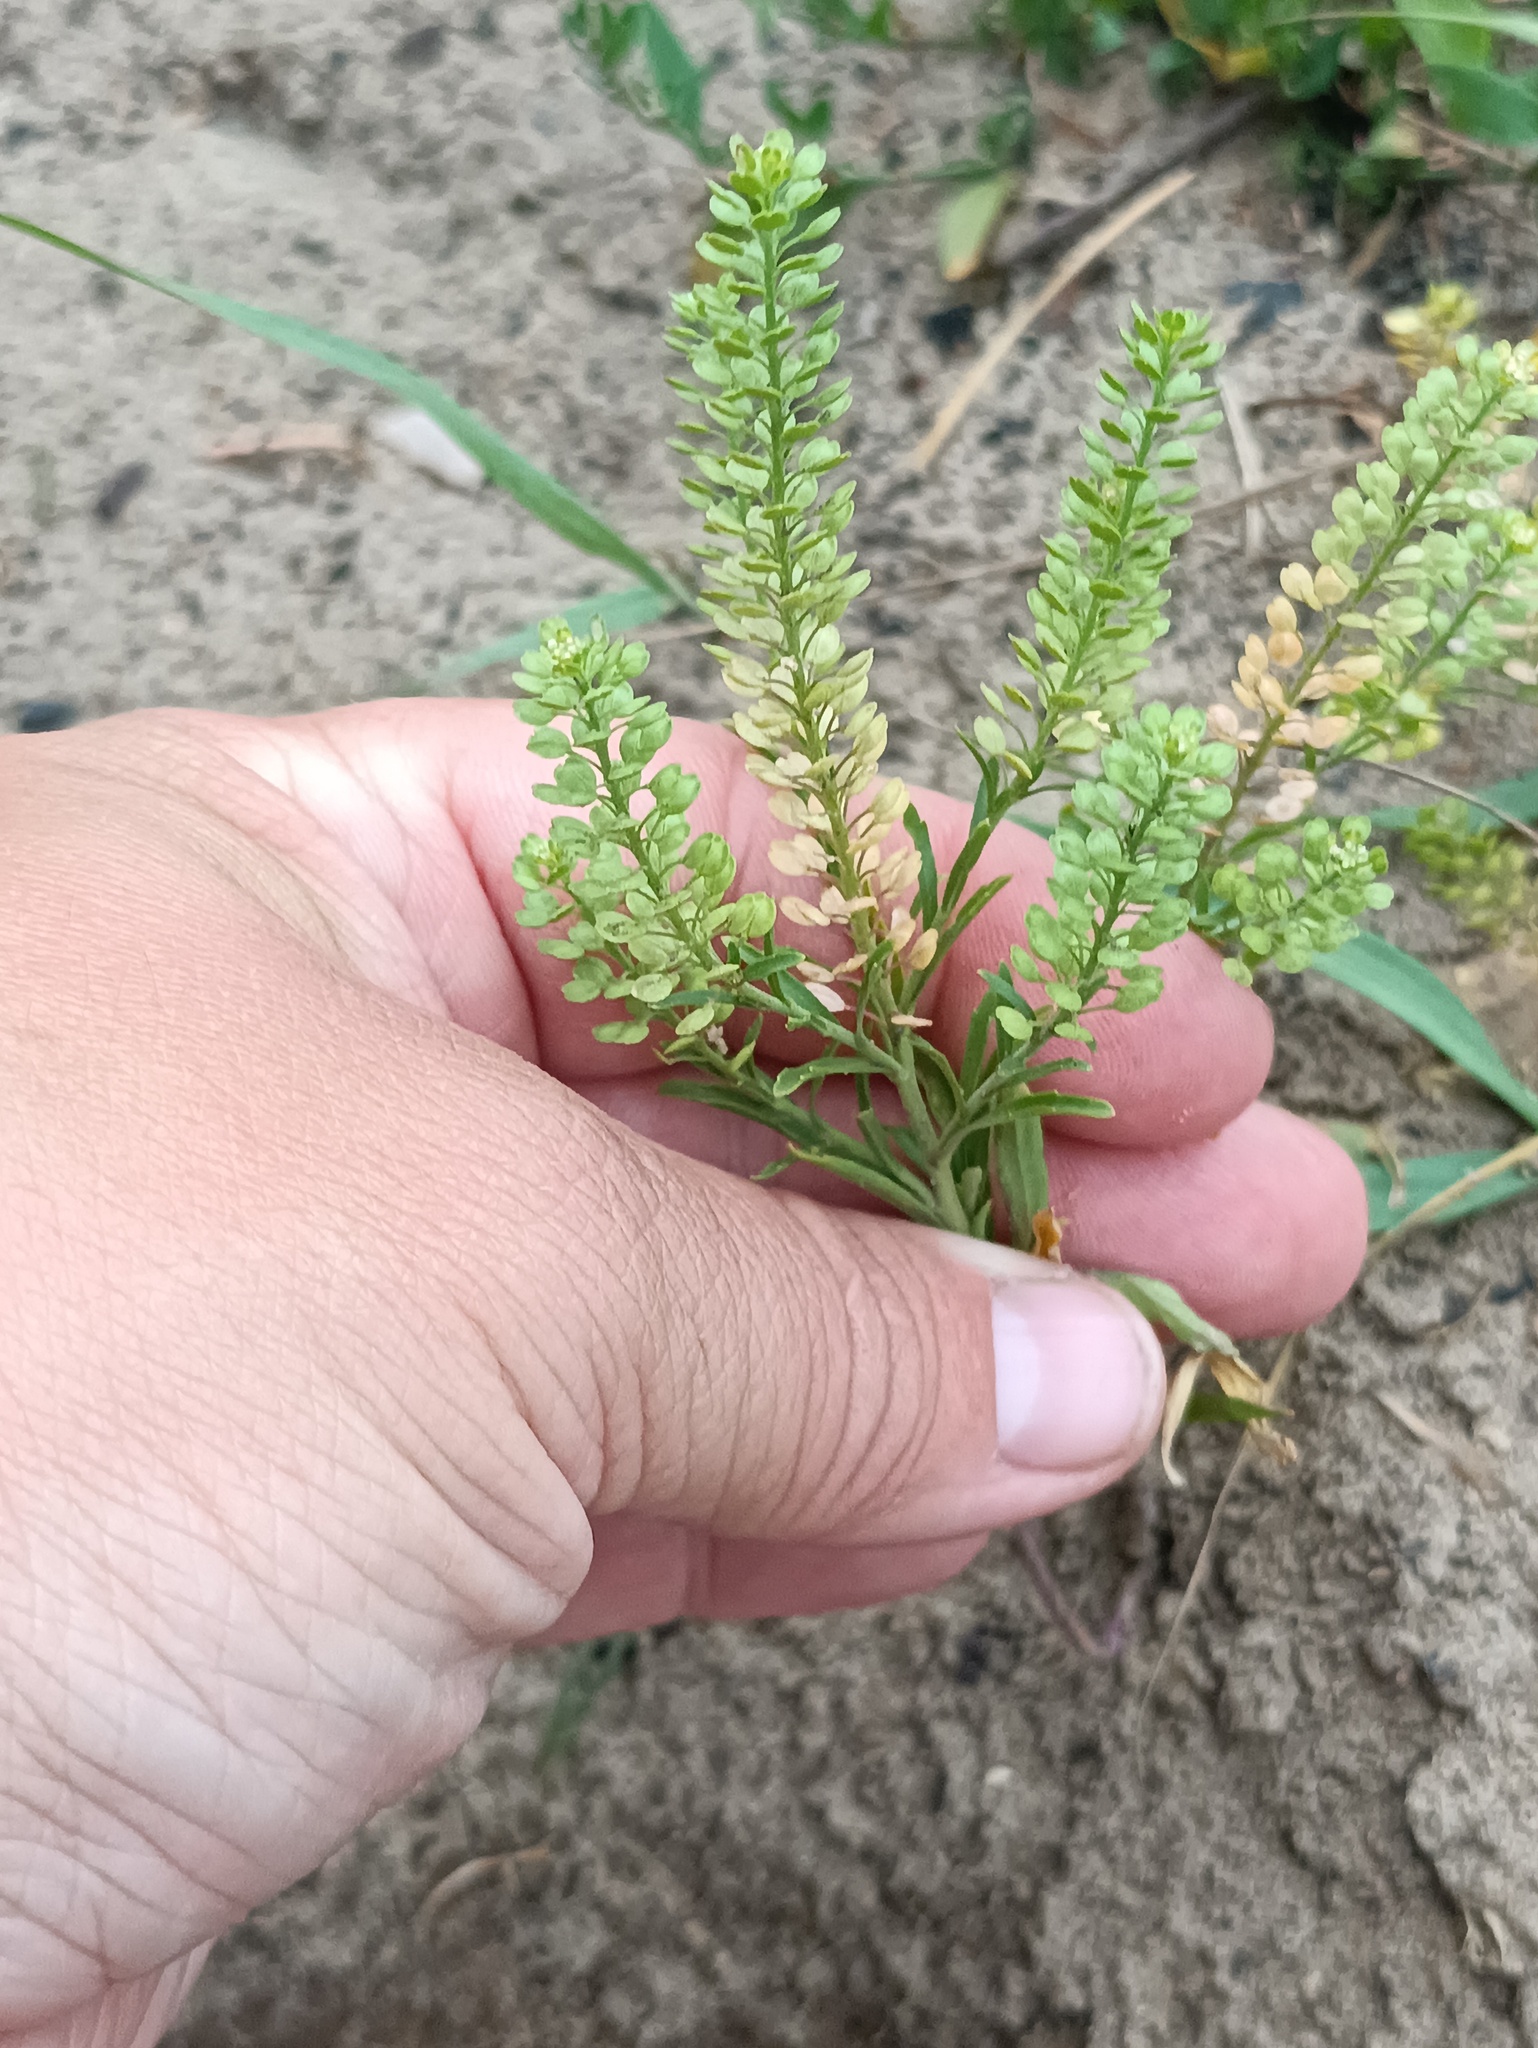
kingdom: Plantae
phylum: Tracheophyta
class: Magnoliopsida
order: Brassicales
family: Brassicaceae
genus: Lepidium
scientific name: Lepidium densiflorum
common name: Miner's pepperwort
